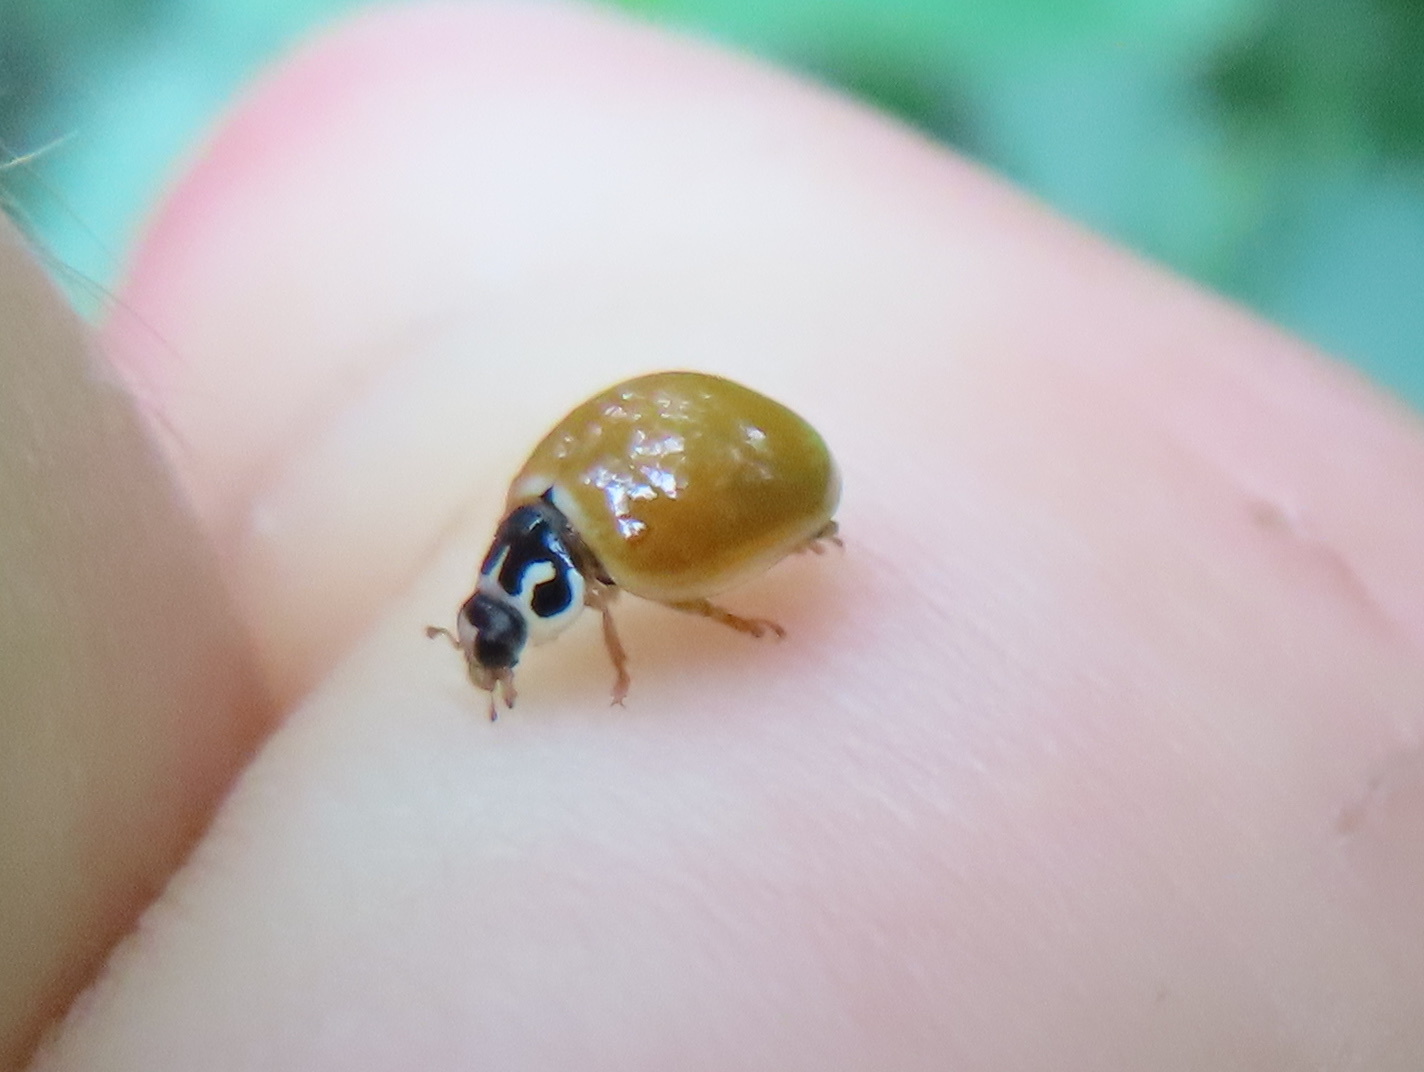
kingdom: Animalia
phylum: Arthropoda
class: Insecta
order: Coleoptera
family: Coccinellidae
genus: Cycloneda
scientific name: Cycloneda munda
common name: Polished lady beetle
